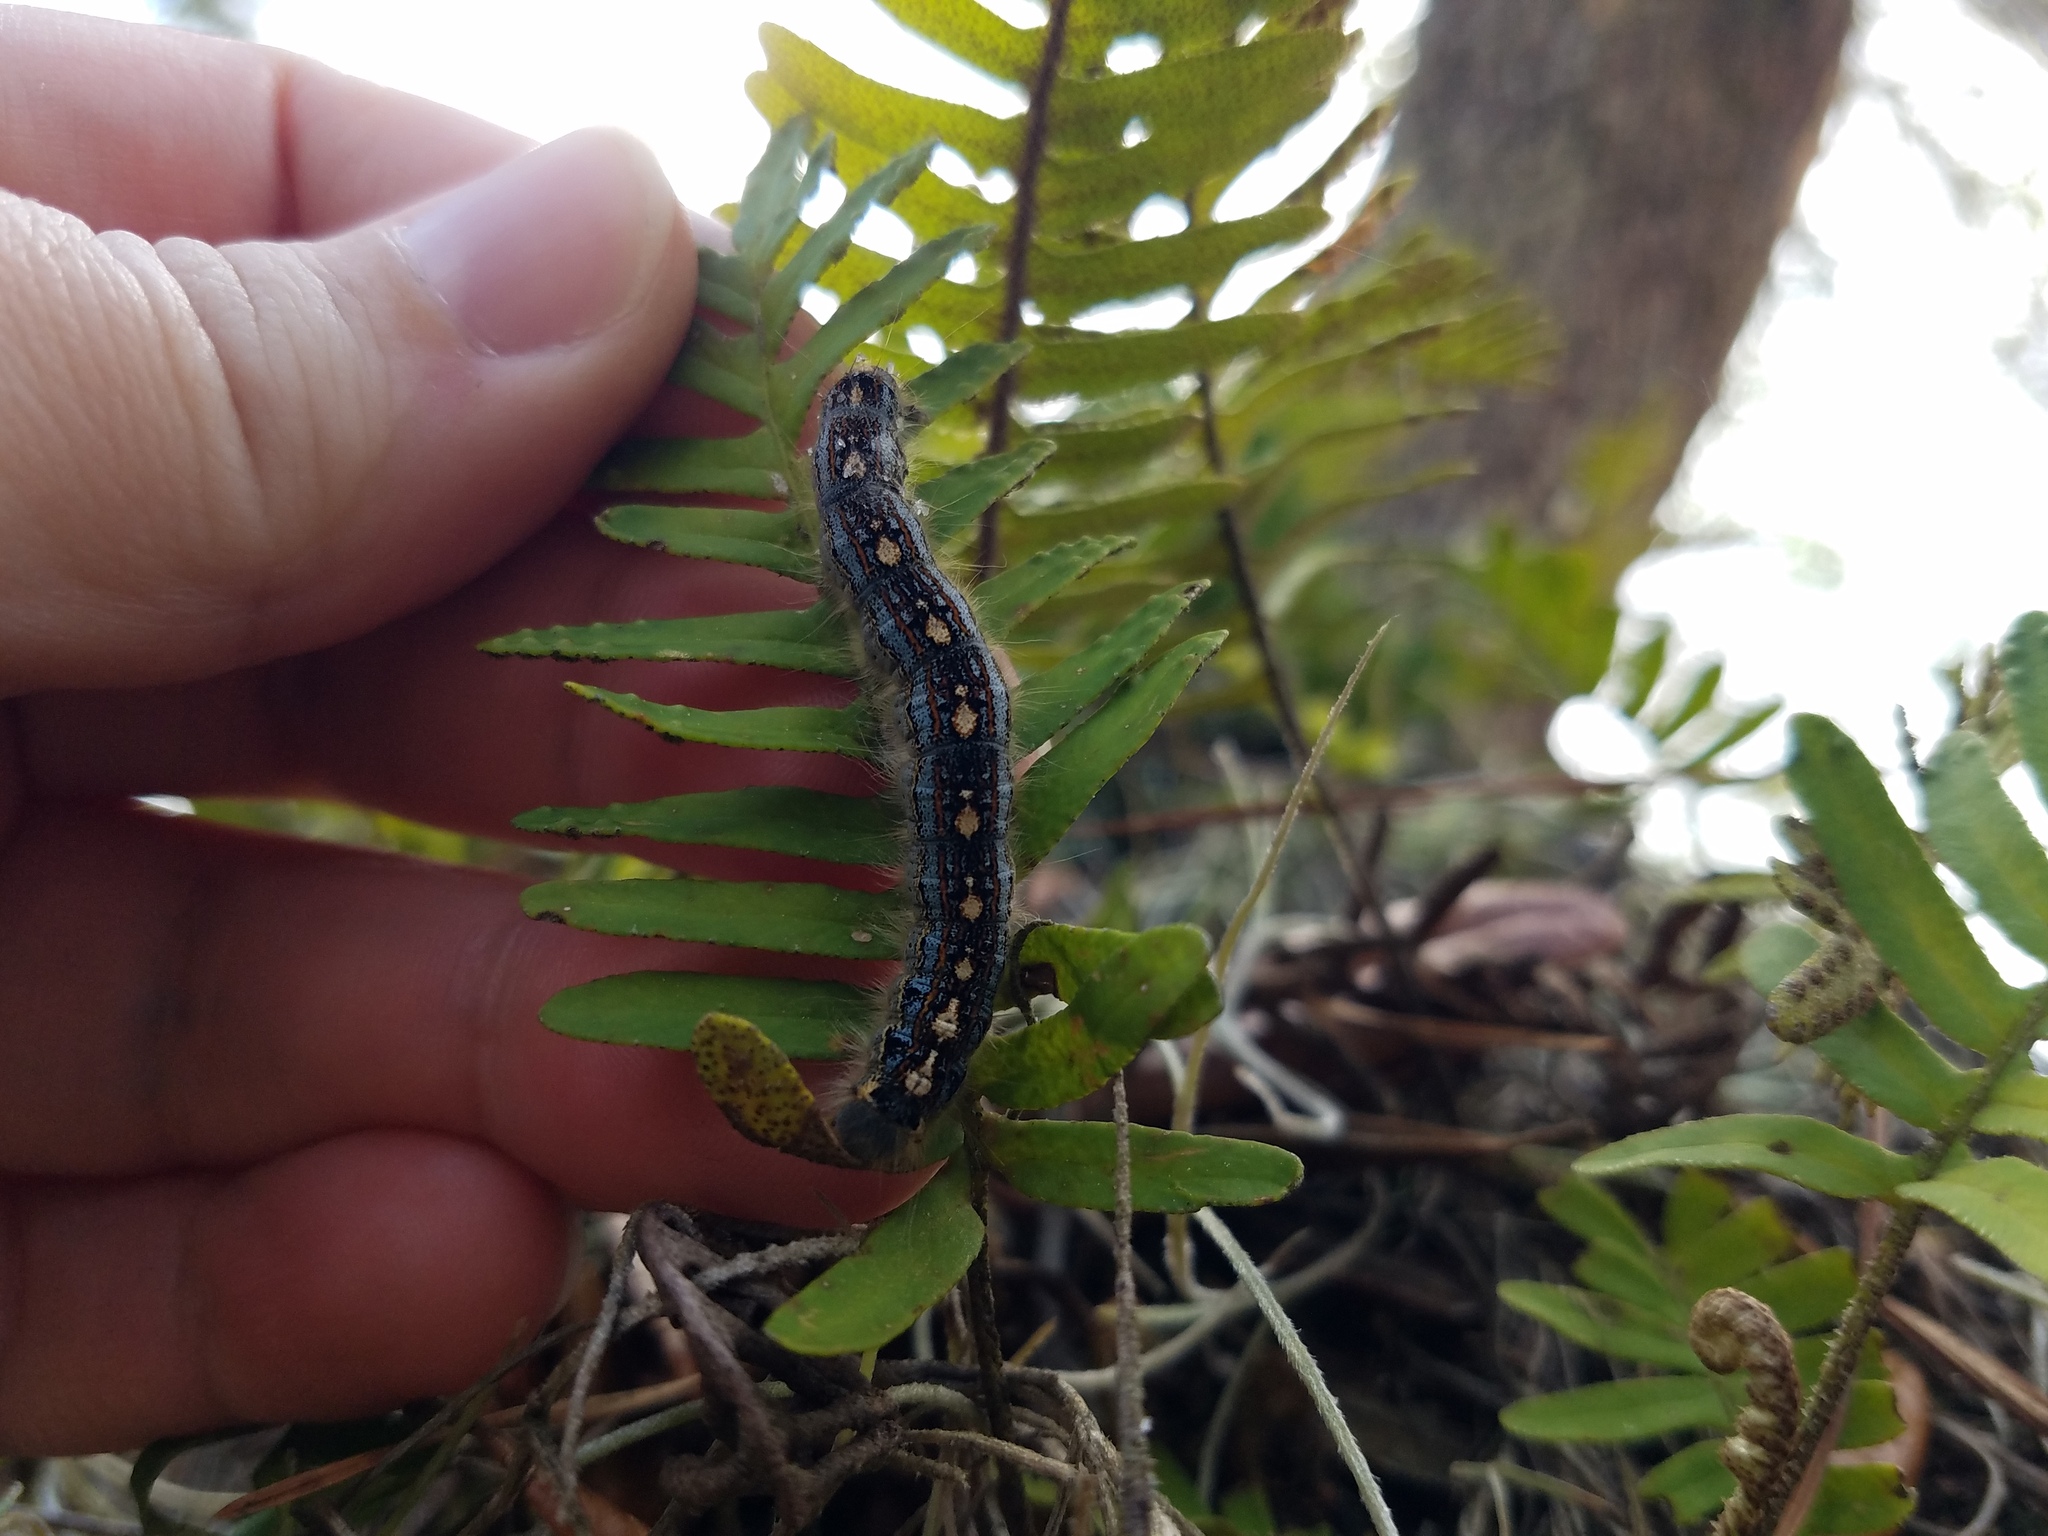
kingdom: Animalia
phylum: Arthropoda
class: Insecta
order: Lepidoptera
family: Lasiocampidae
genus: Malacosoma
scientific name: Malacosoma disstria
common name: Forest tent caterpillar
